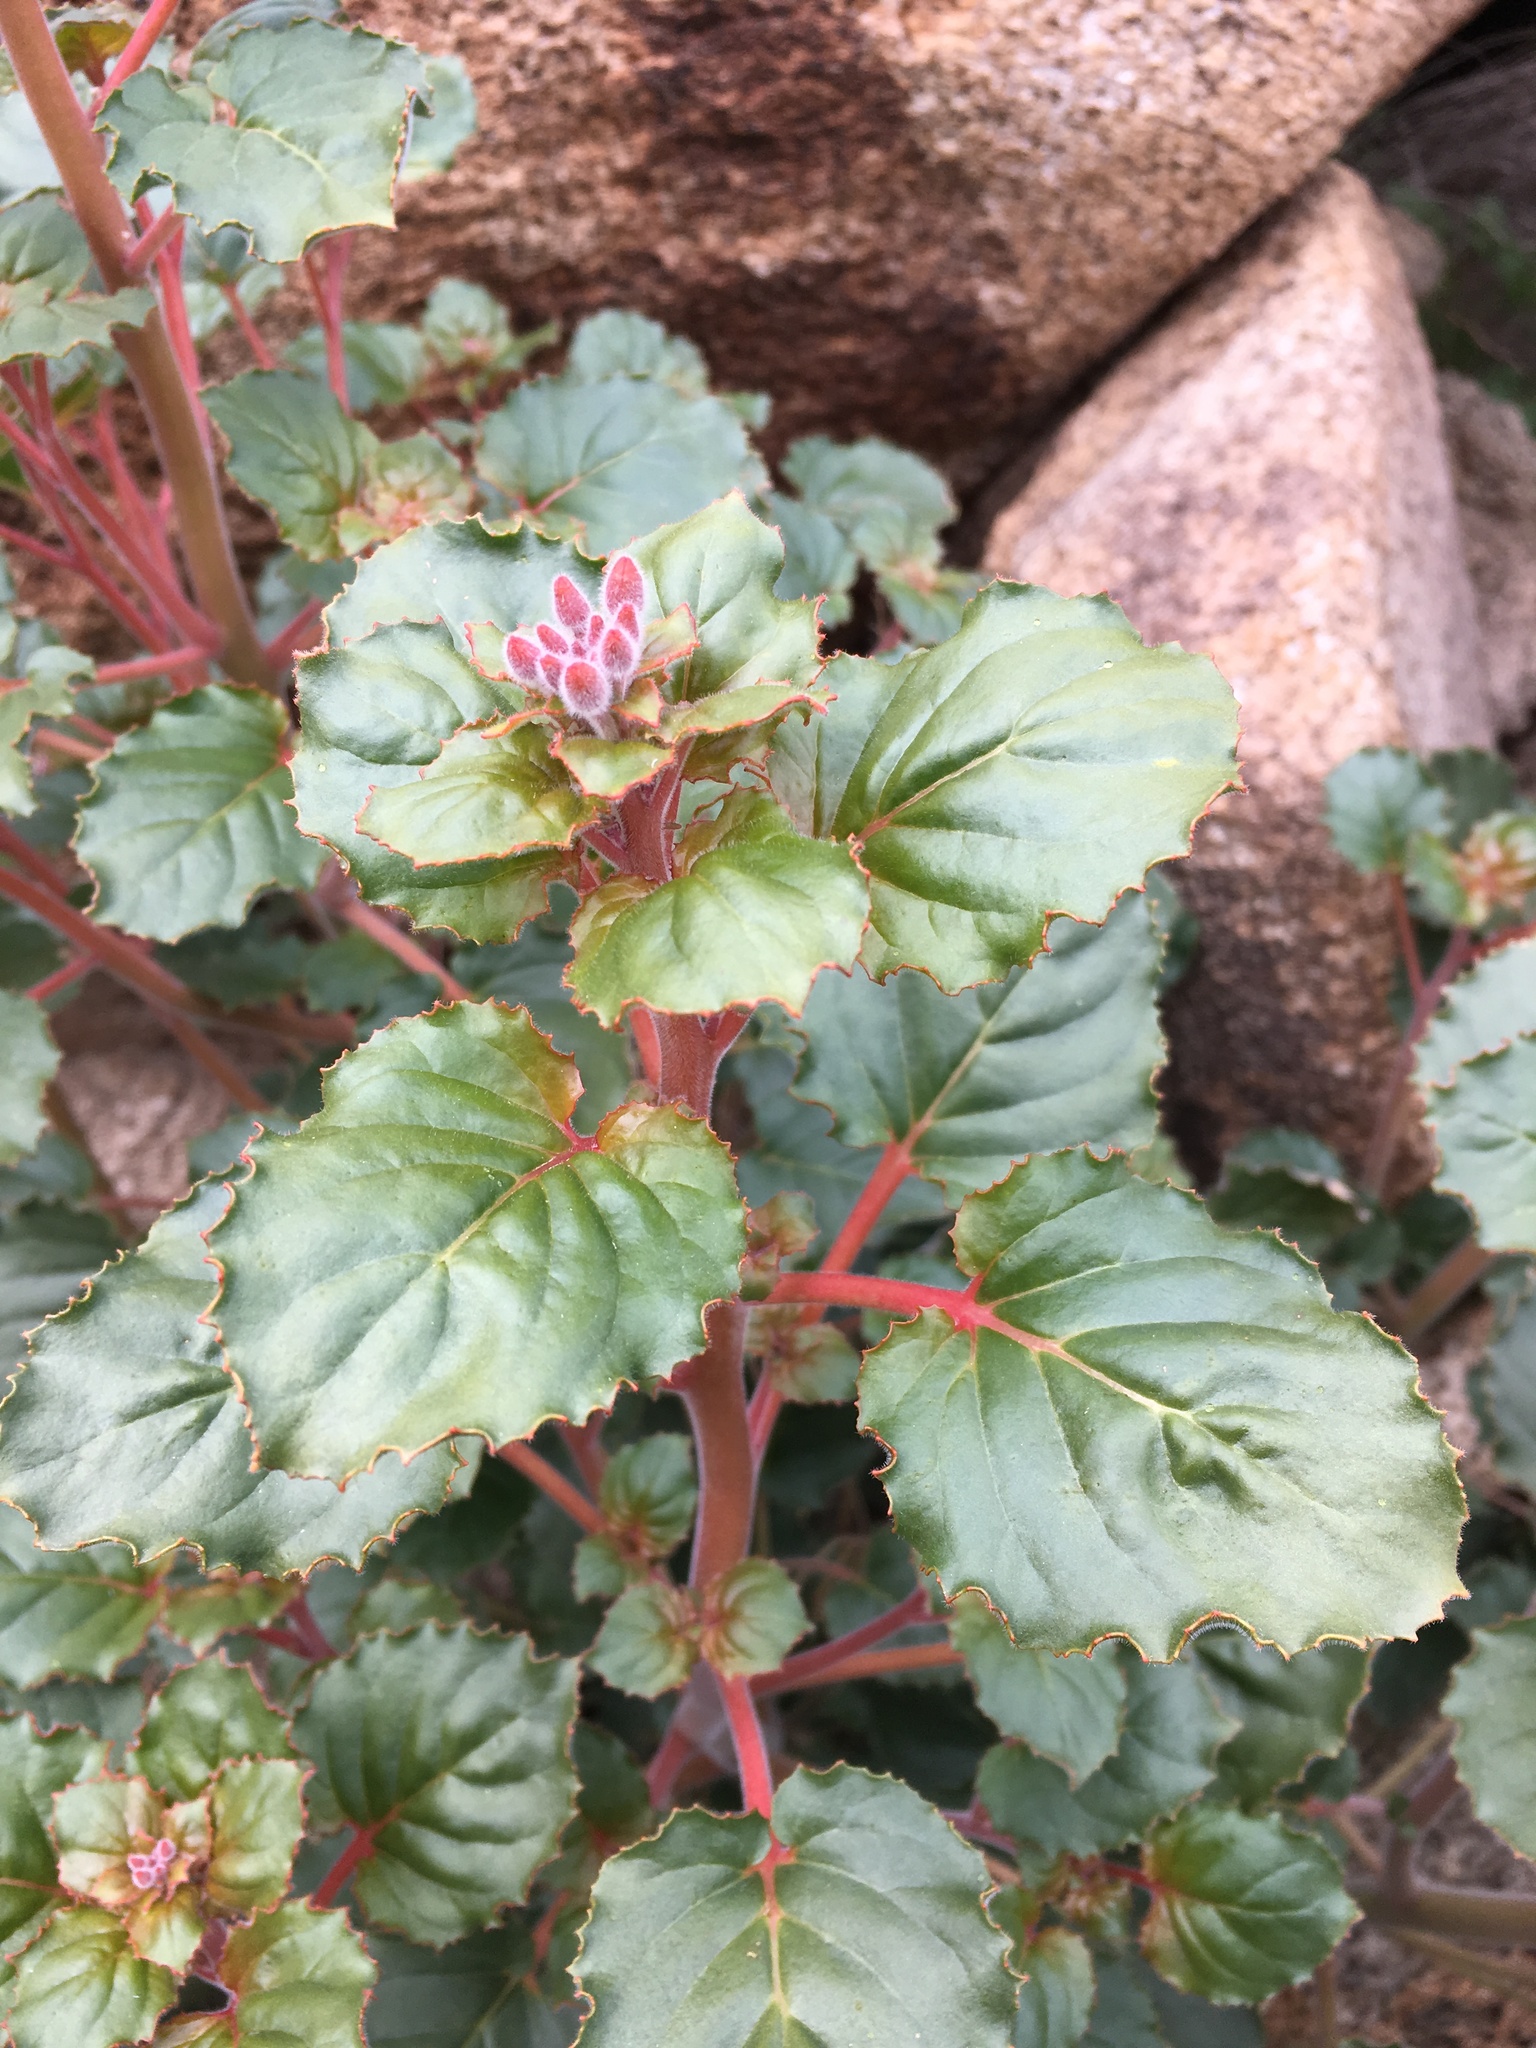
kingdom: Plantae
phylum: Tracheophyta
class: Magnoliopsida
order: Myrtales
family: Onagraceae
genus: Chylismia
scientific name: Chylismia cardiophylla
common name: Heartleaf suncup
